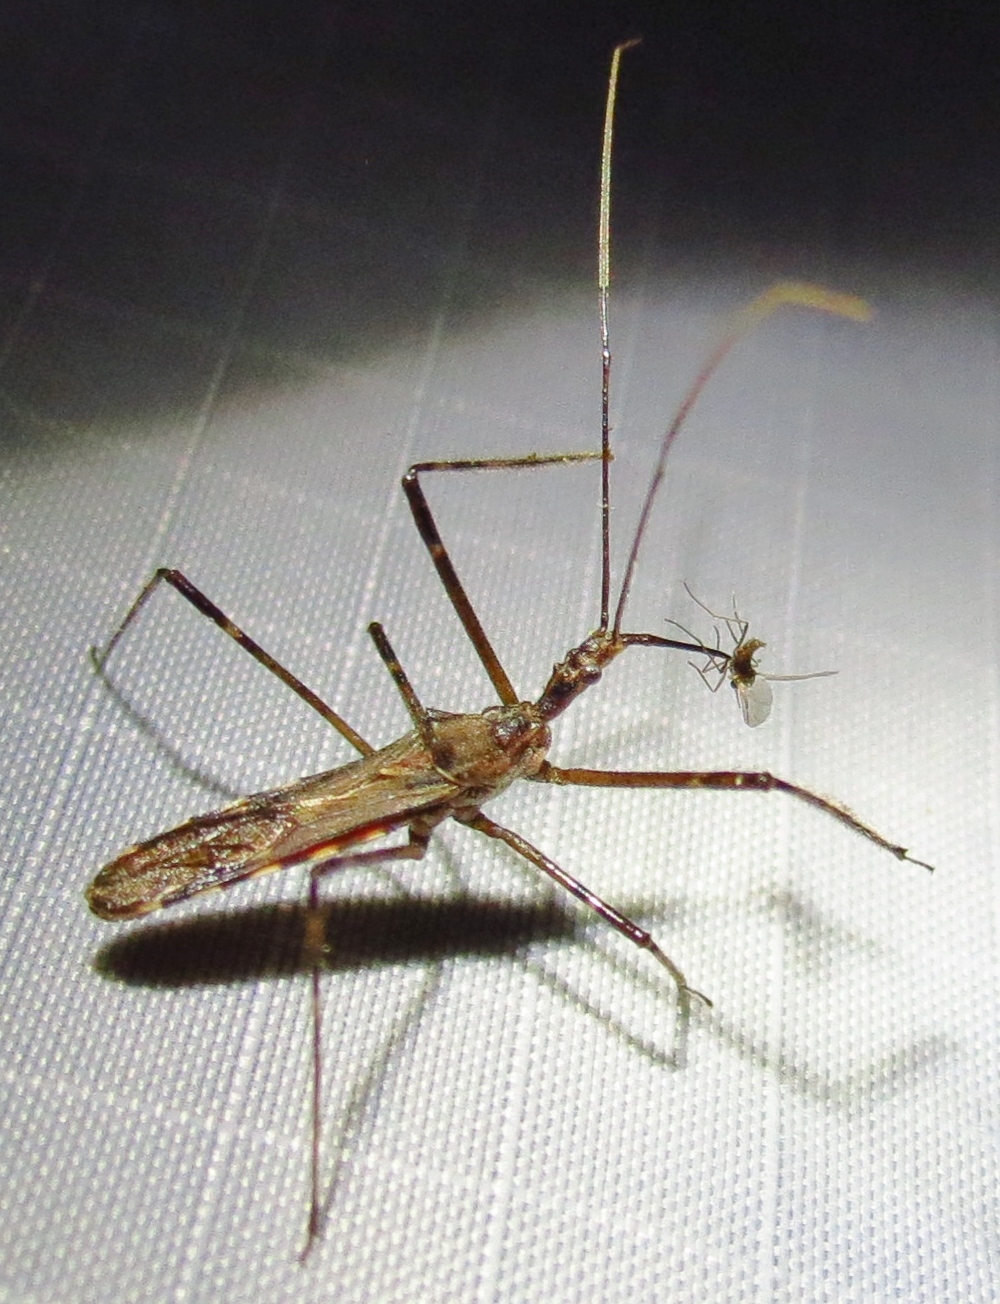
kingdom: Animalia
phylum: Arthropoda
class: Insecta
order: Hemiptera
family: Reduviidae
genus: Zelus
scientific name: Zelus tetracanthus
